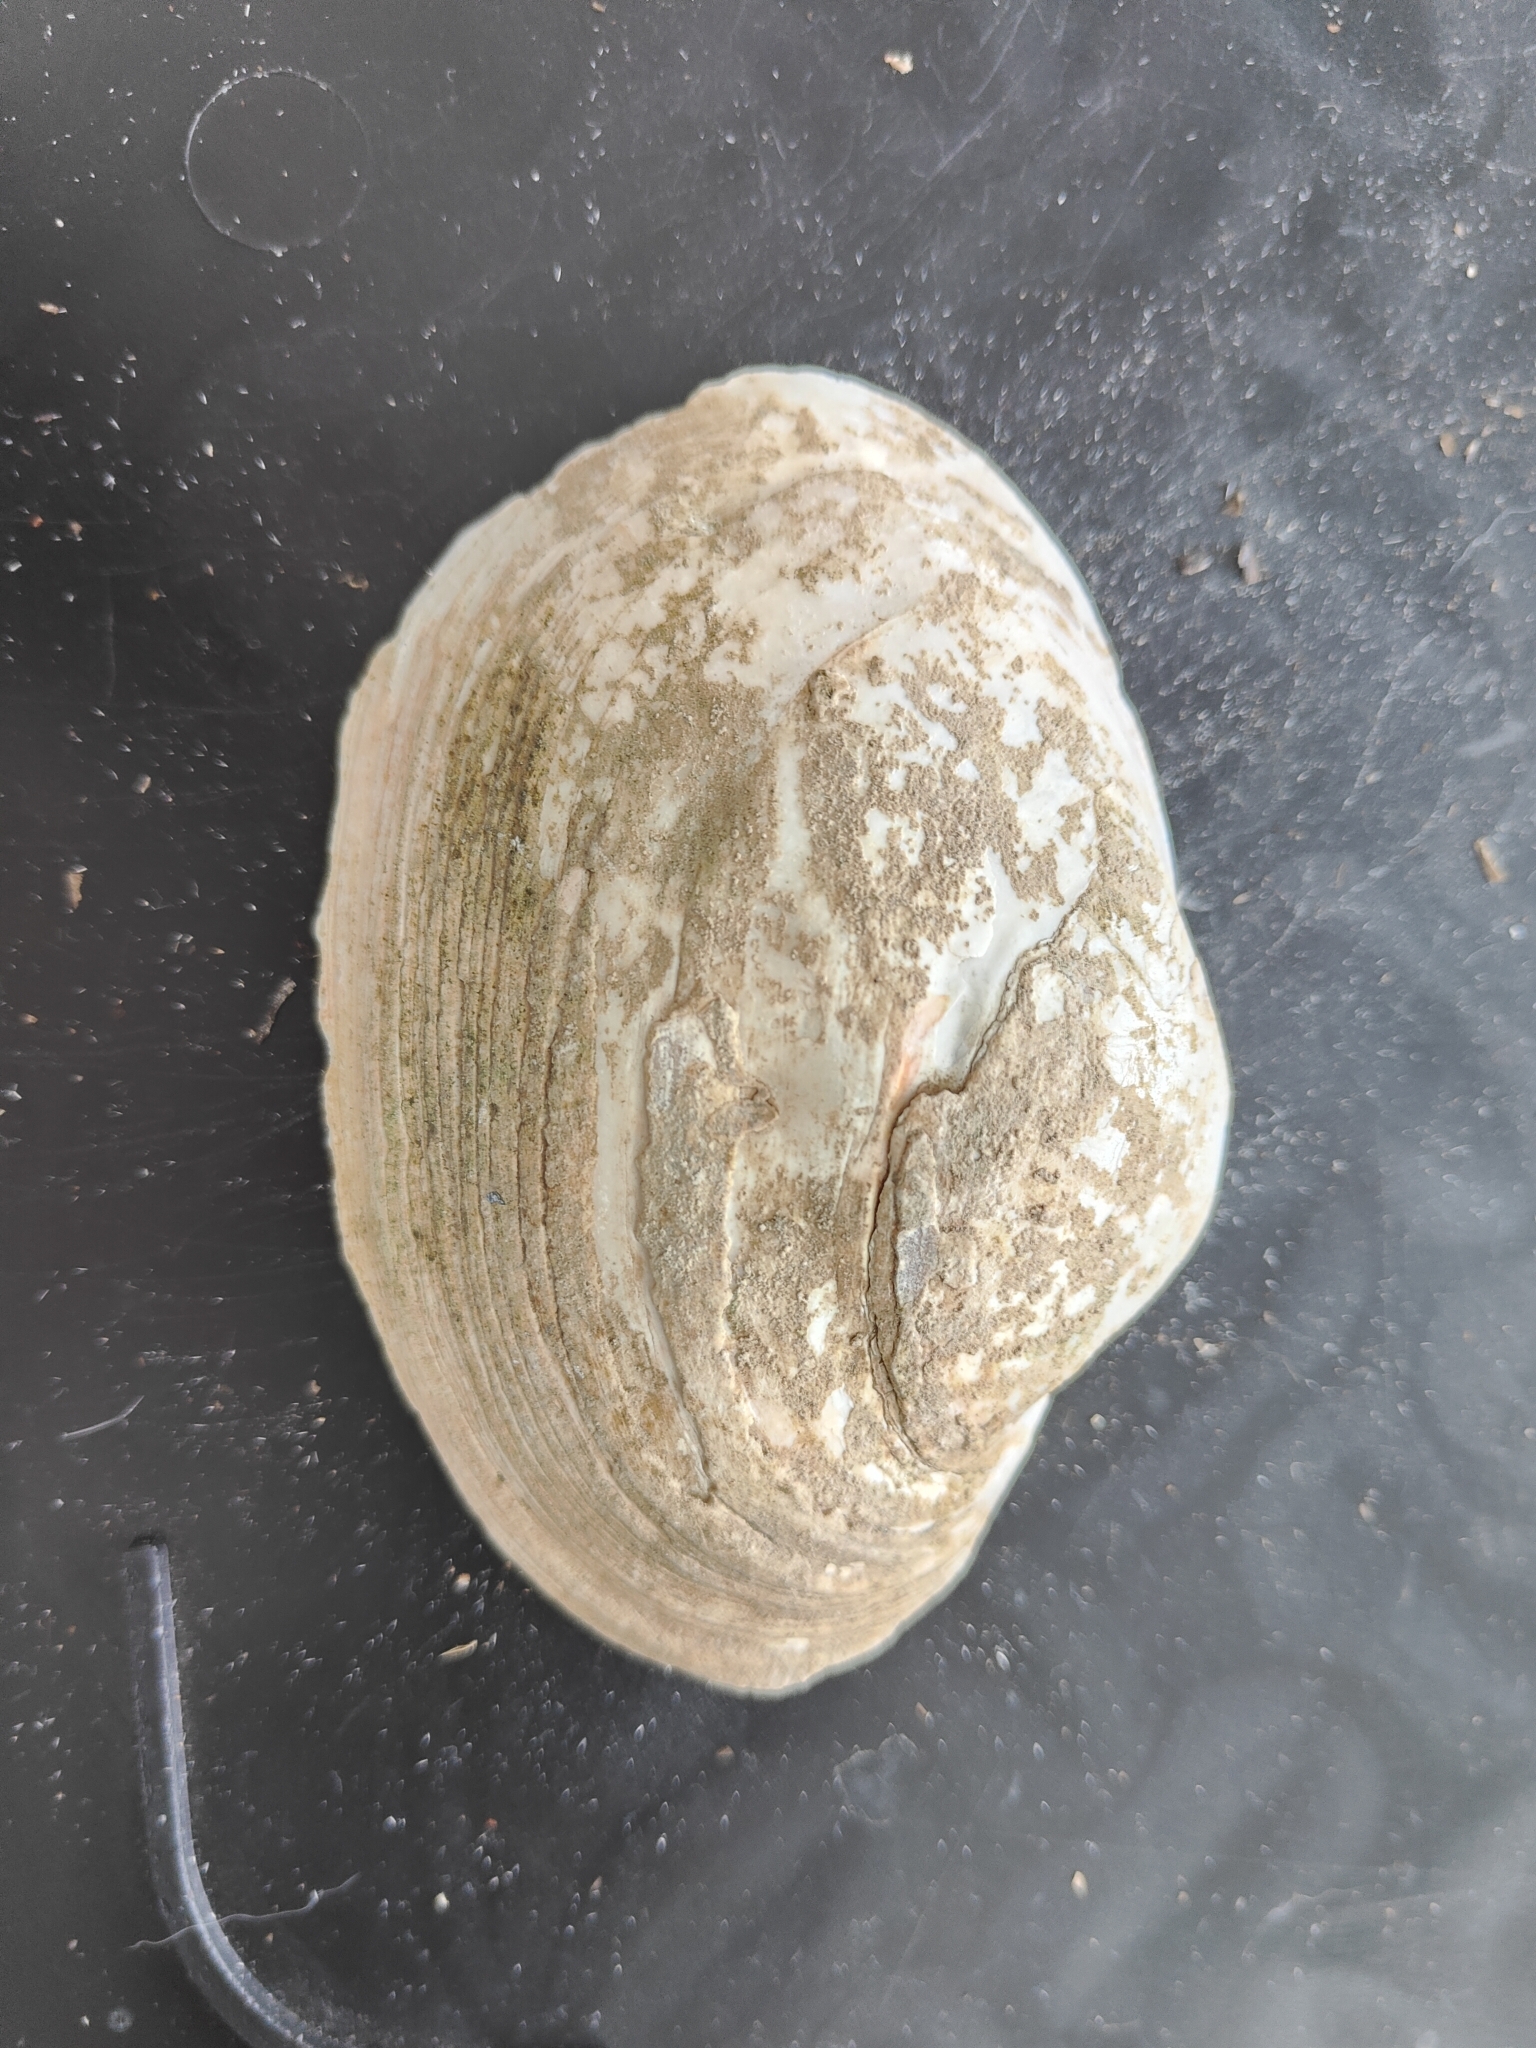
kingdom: Animalia
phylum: Mollusca
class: Bivalvia
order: Unionida
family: Unionidae
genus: Lampsilis
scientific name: Lampsilis cardium
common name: Plain pocketbook
